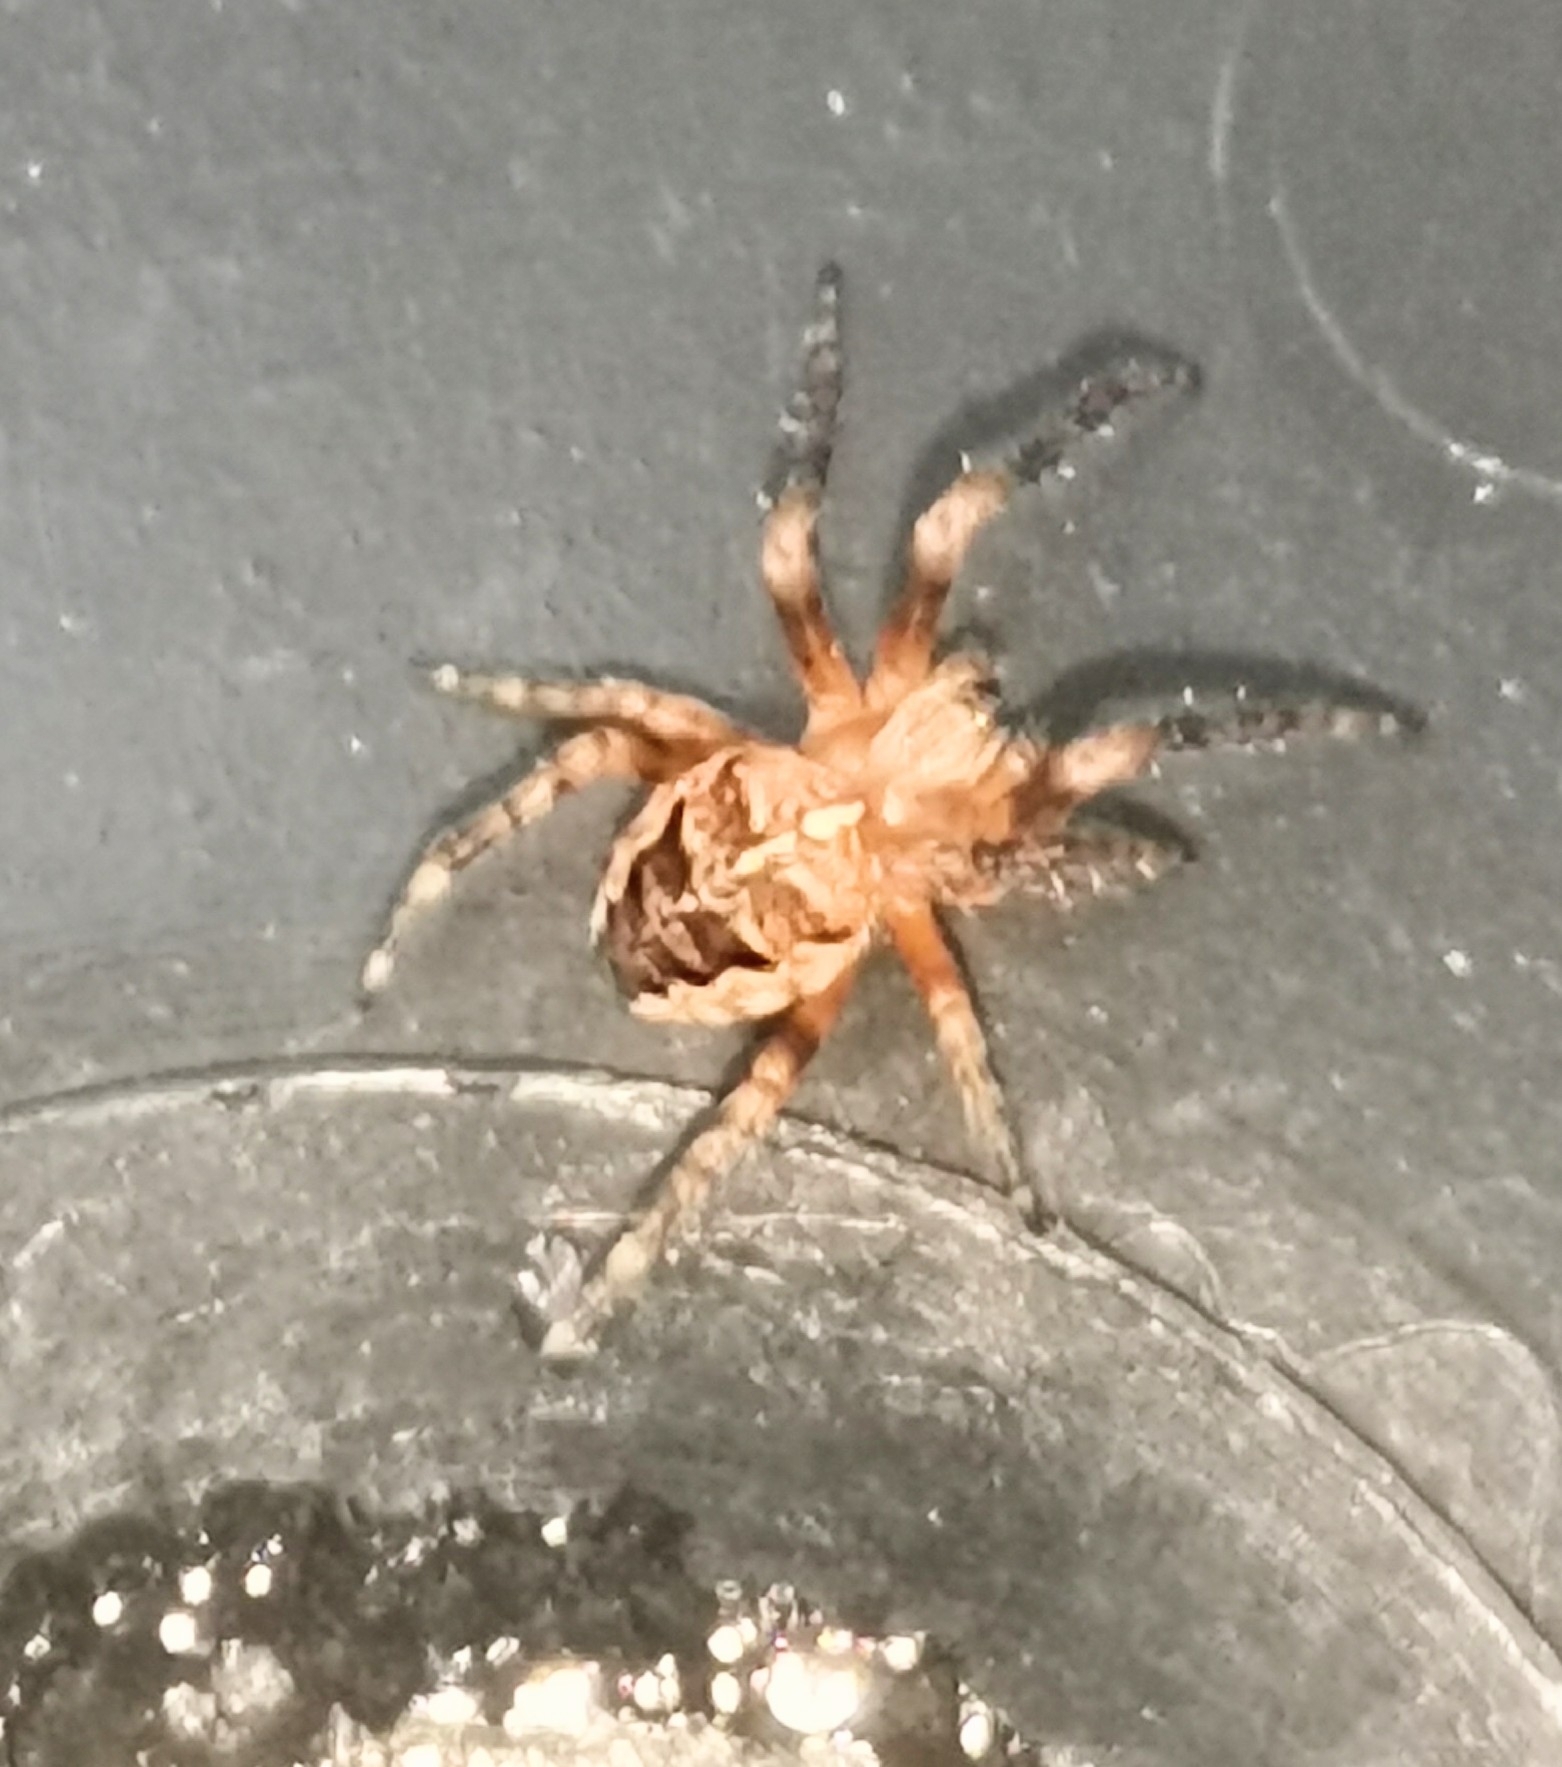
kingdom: Animalia
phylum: Arthropoda
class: Arachnida
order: Araneae
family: Araneidae
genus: Araneus
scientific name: Araneus diadematus
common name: Cross orbweaver
